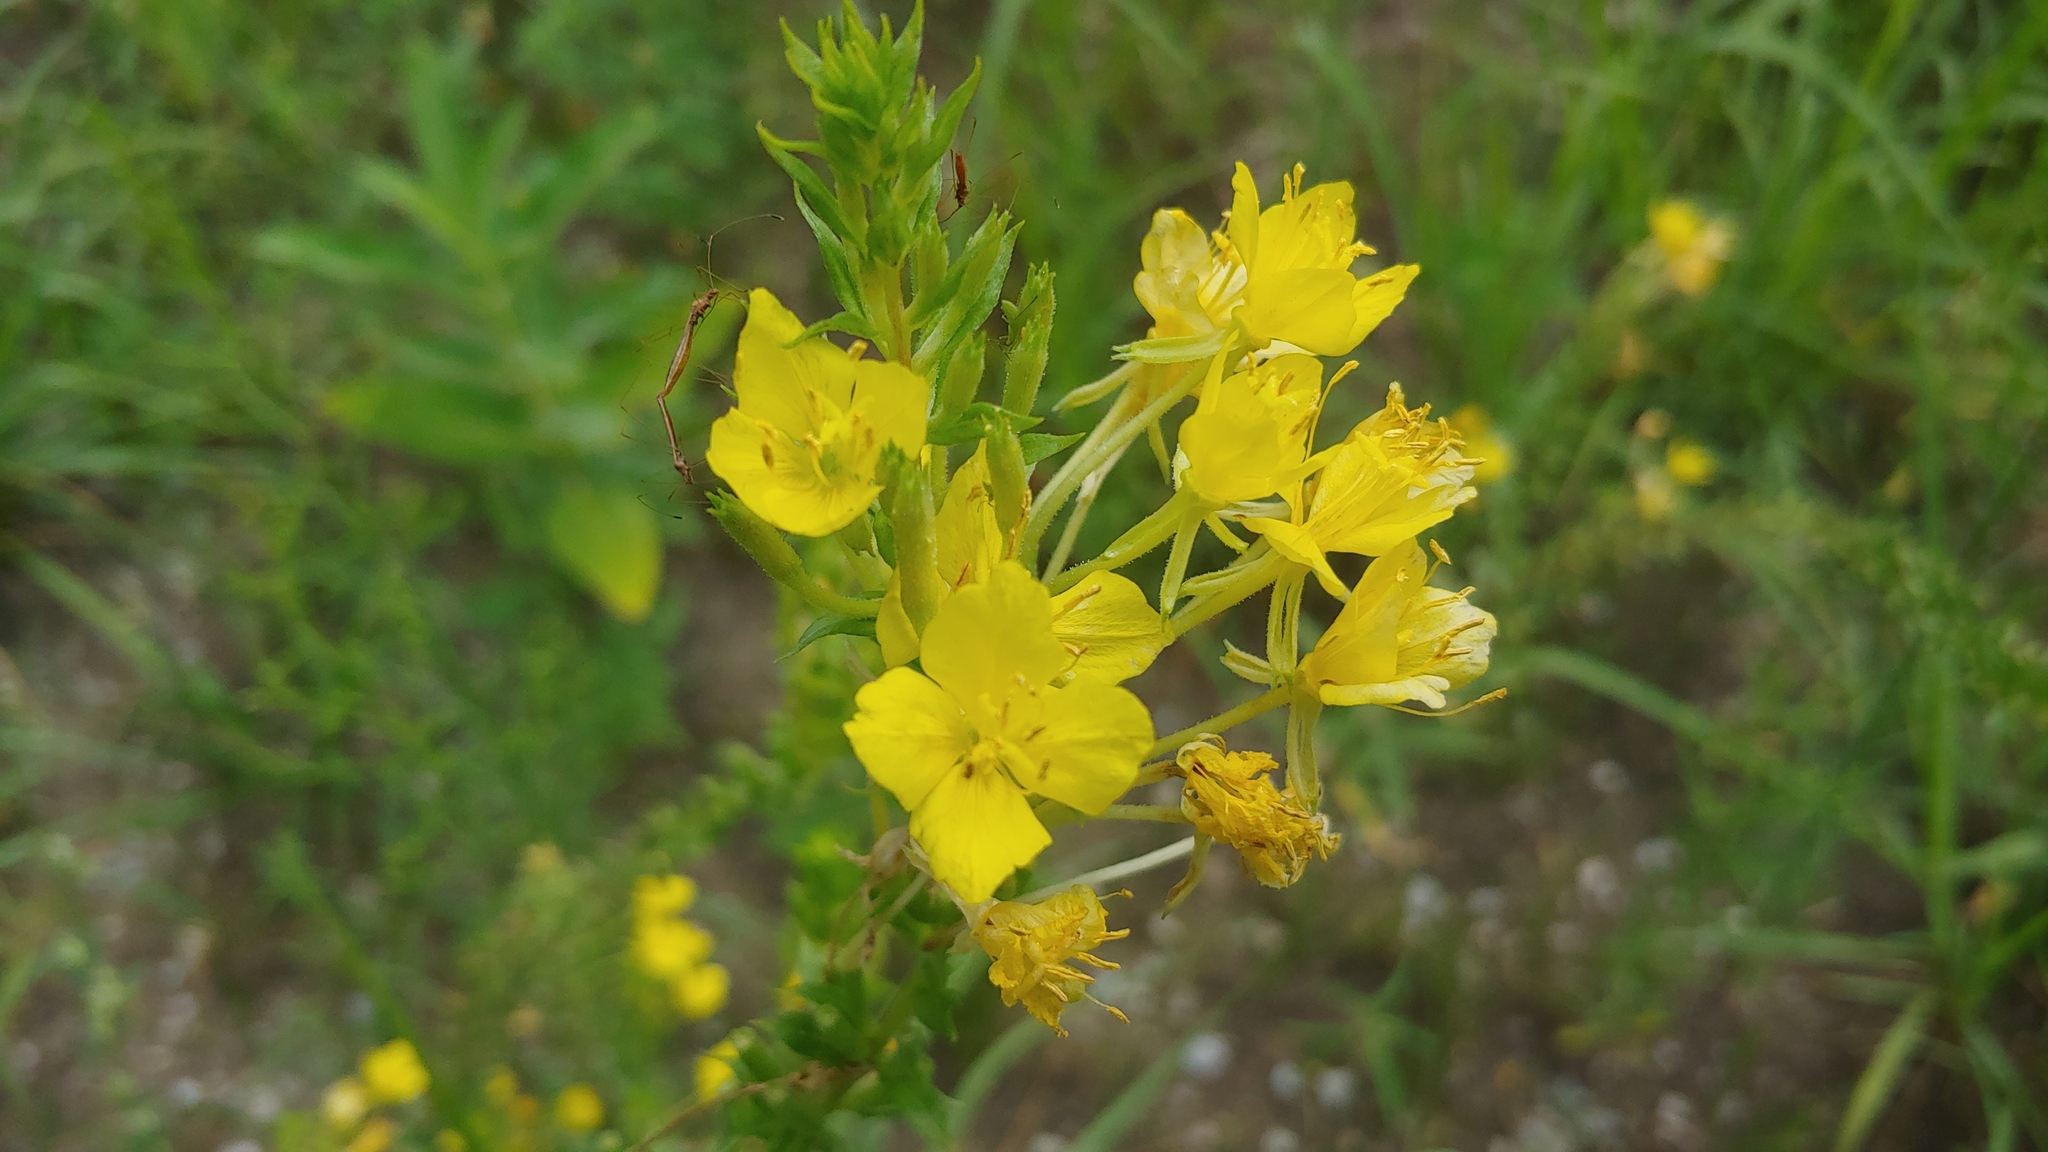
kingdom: Plantae
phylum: Tracheophyta
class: Magnoliopsida
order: Myrtales
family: Onagraceae
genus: Oenothera
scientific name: Oenothera clelandii
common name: Cleland's evening-primrose
